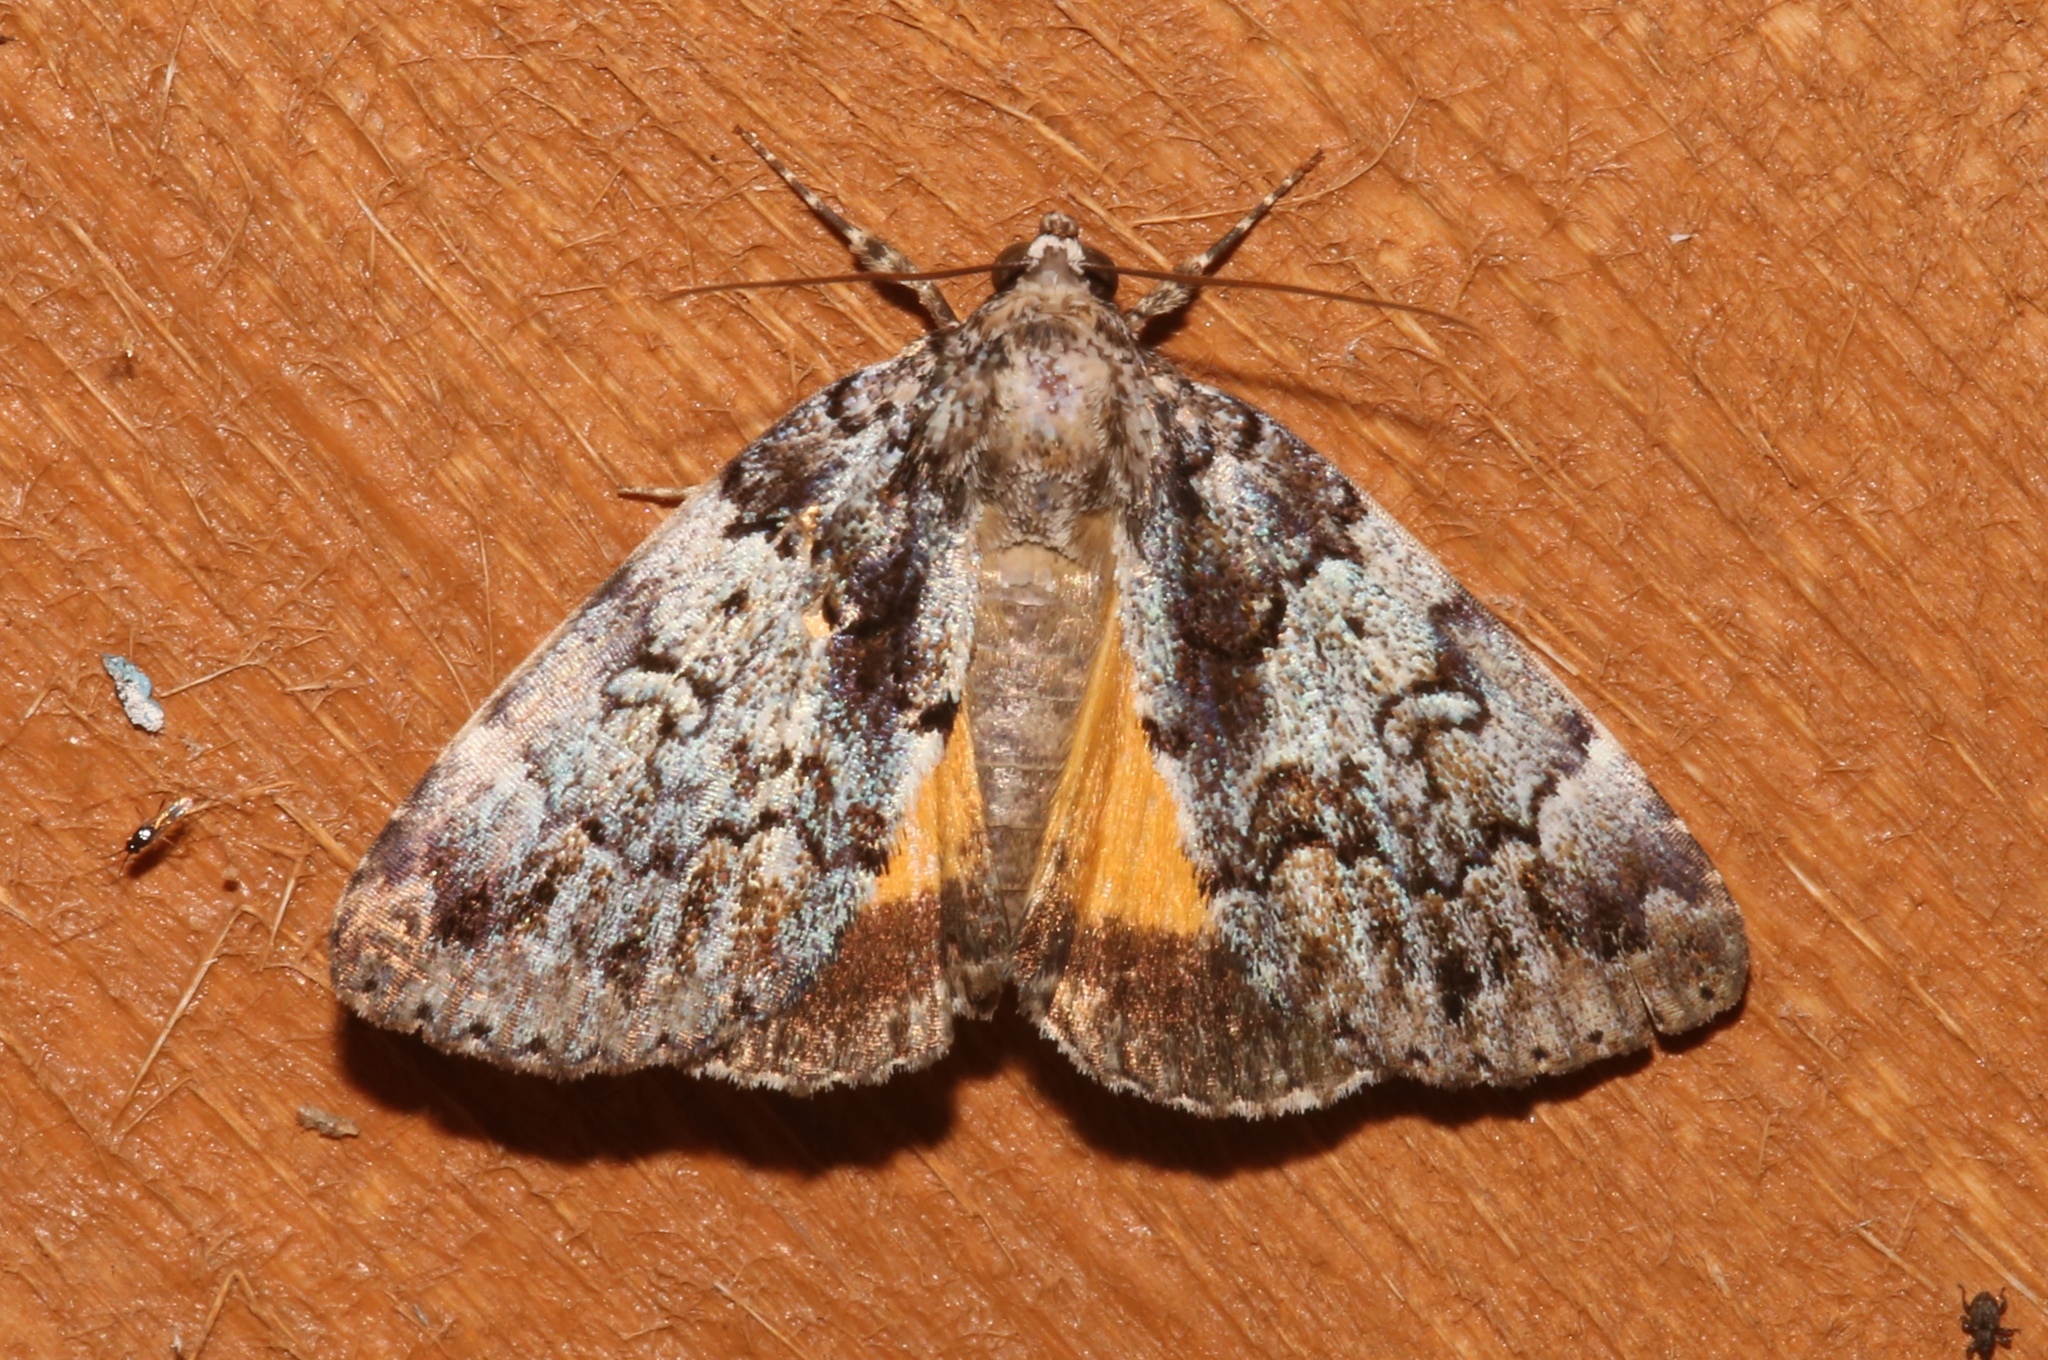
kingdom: Animalia
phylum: Arthropoda
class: Insecta
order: Lepidoptera
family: Erebidae
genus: Allotria
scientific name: Allotria elonympha
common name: False underwing
